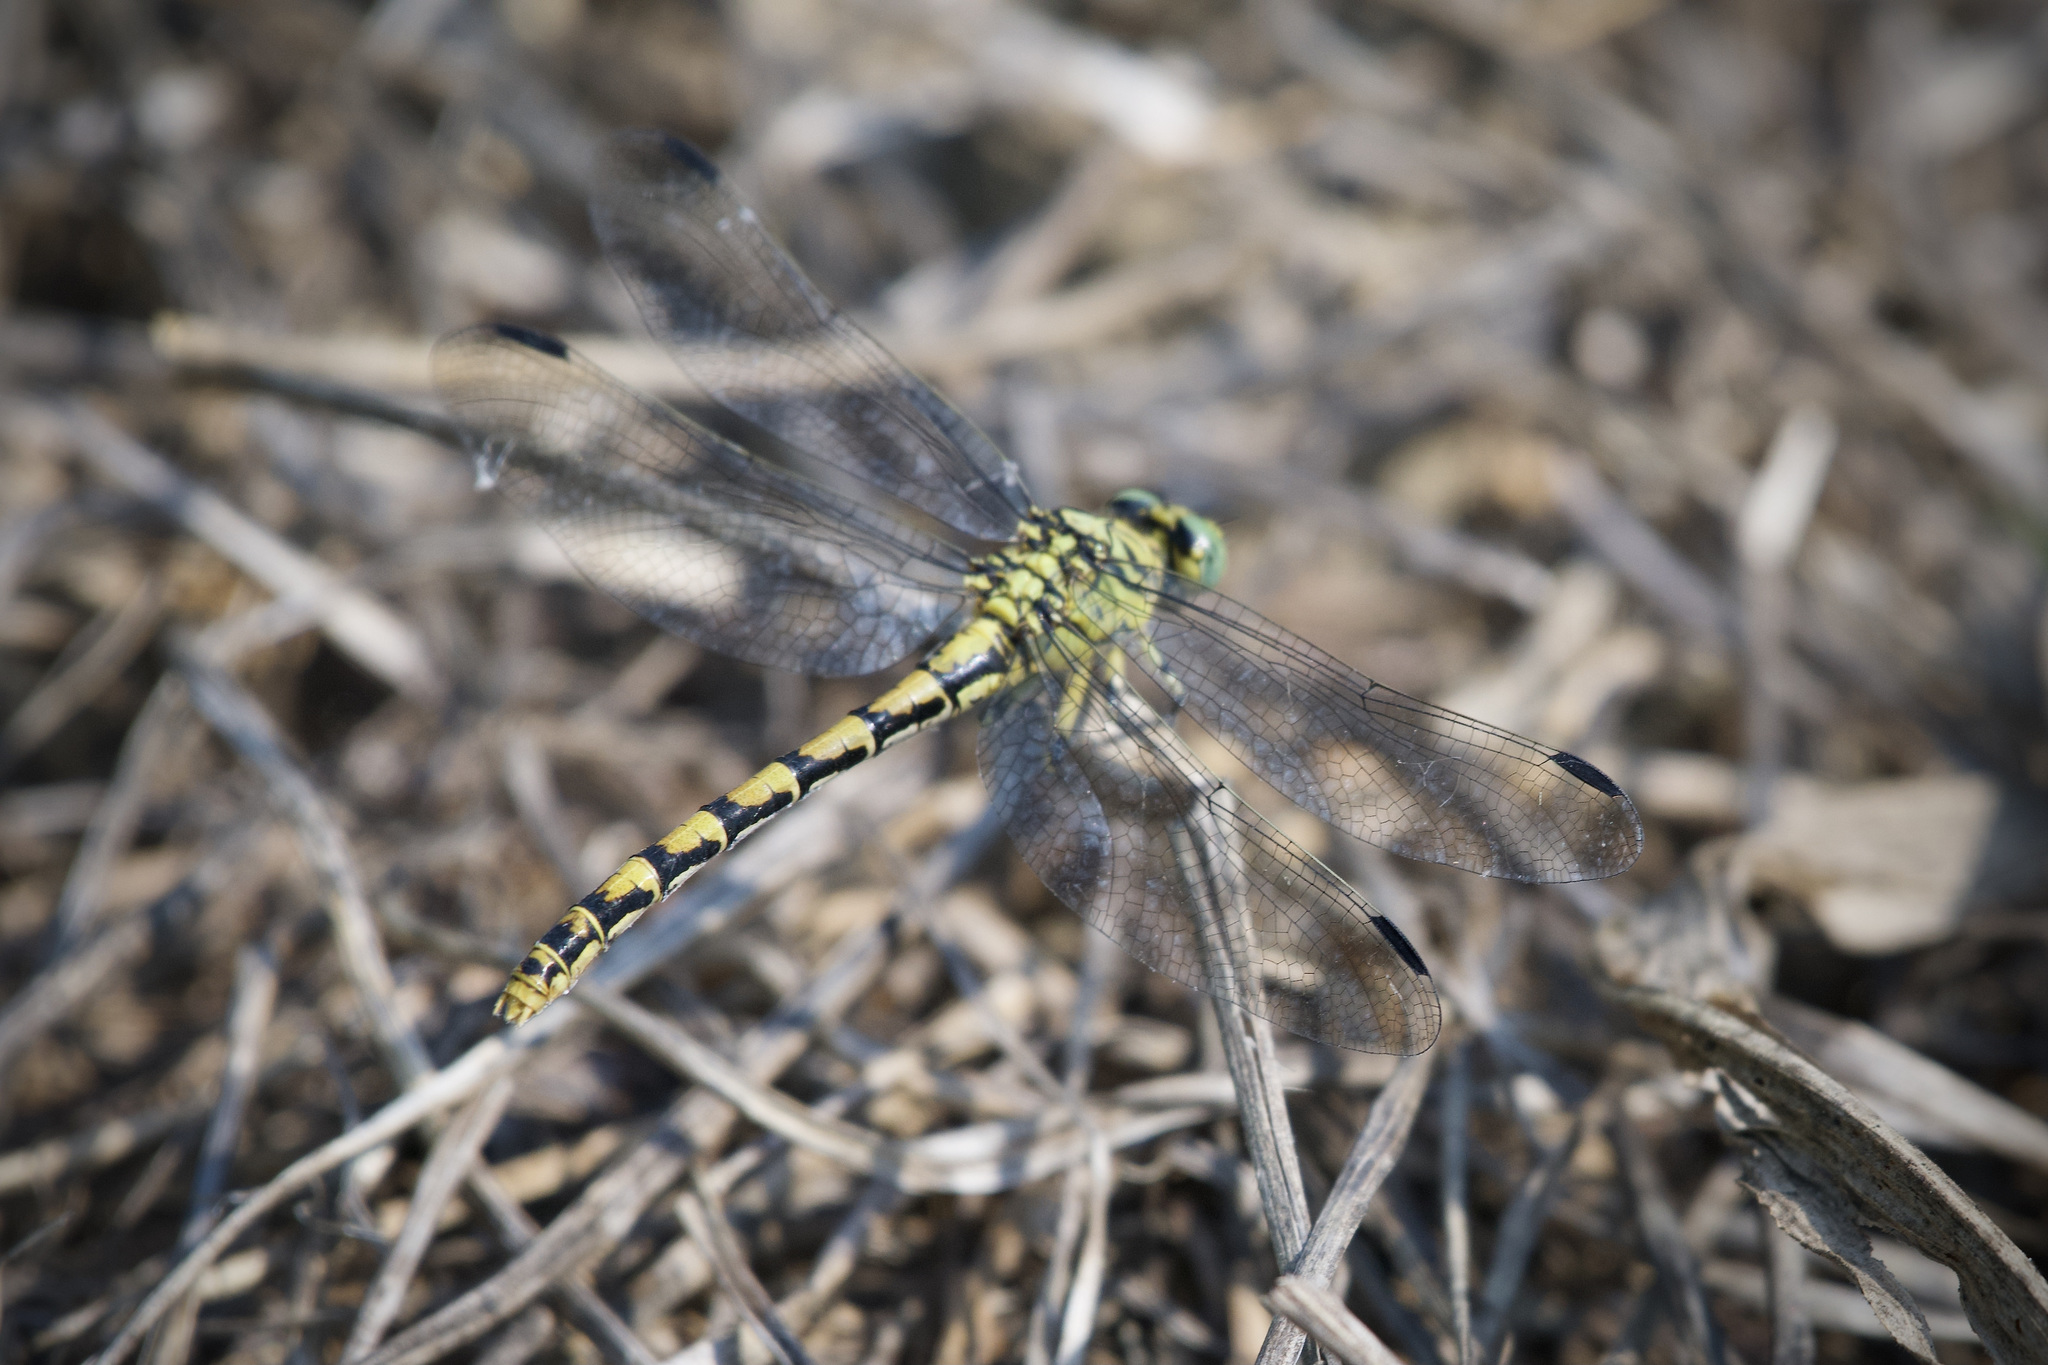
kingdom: Animalia
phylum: Arthropoda
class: Insecta
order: Odonata
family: Gomphidae
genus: Onychogomphus
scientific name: Onychogomphus forcipatus
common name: Small pincertail
